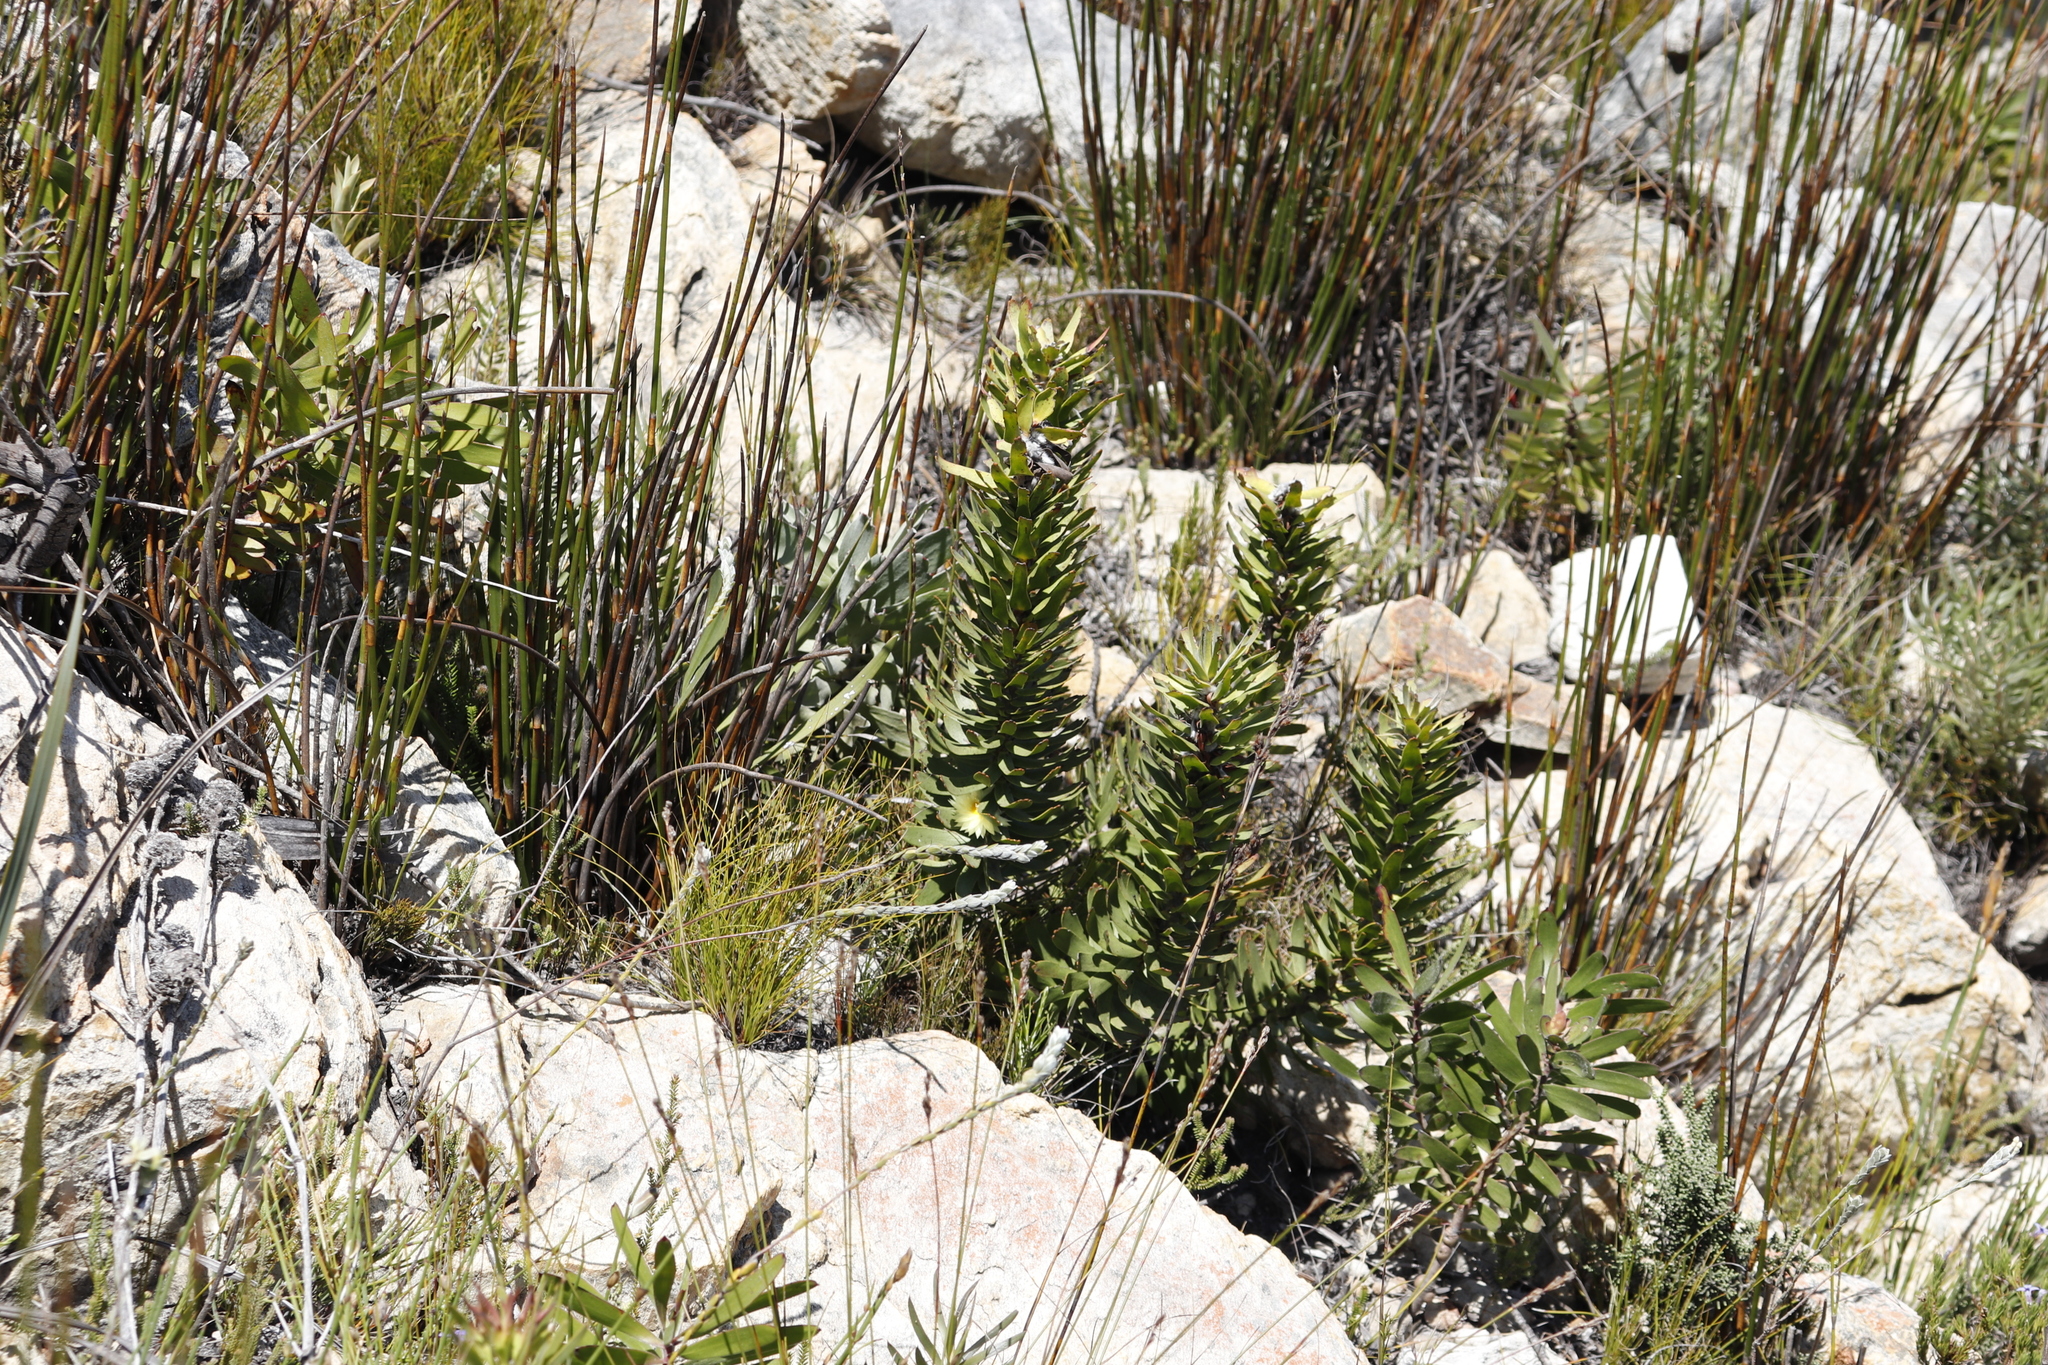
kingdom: Plantae
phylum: Tracheophyta
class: Magnoliopsida
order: Proteales
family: Proteaceae
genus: Mimetes
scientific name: Mimetes cucullatus
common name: Common pagoda
